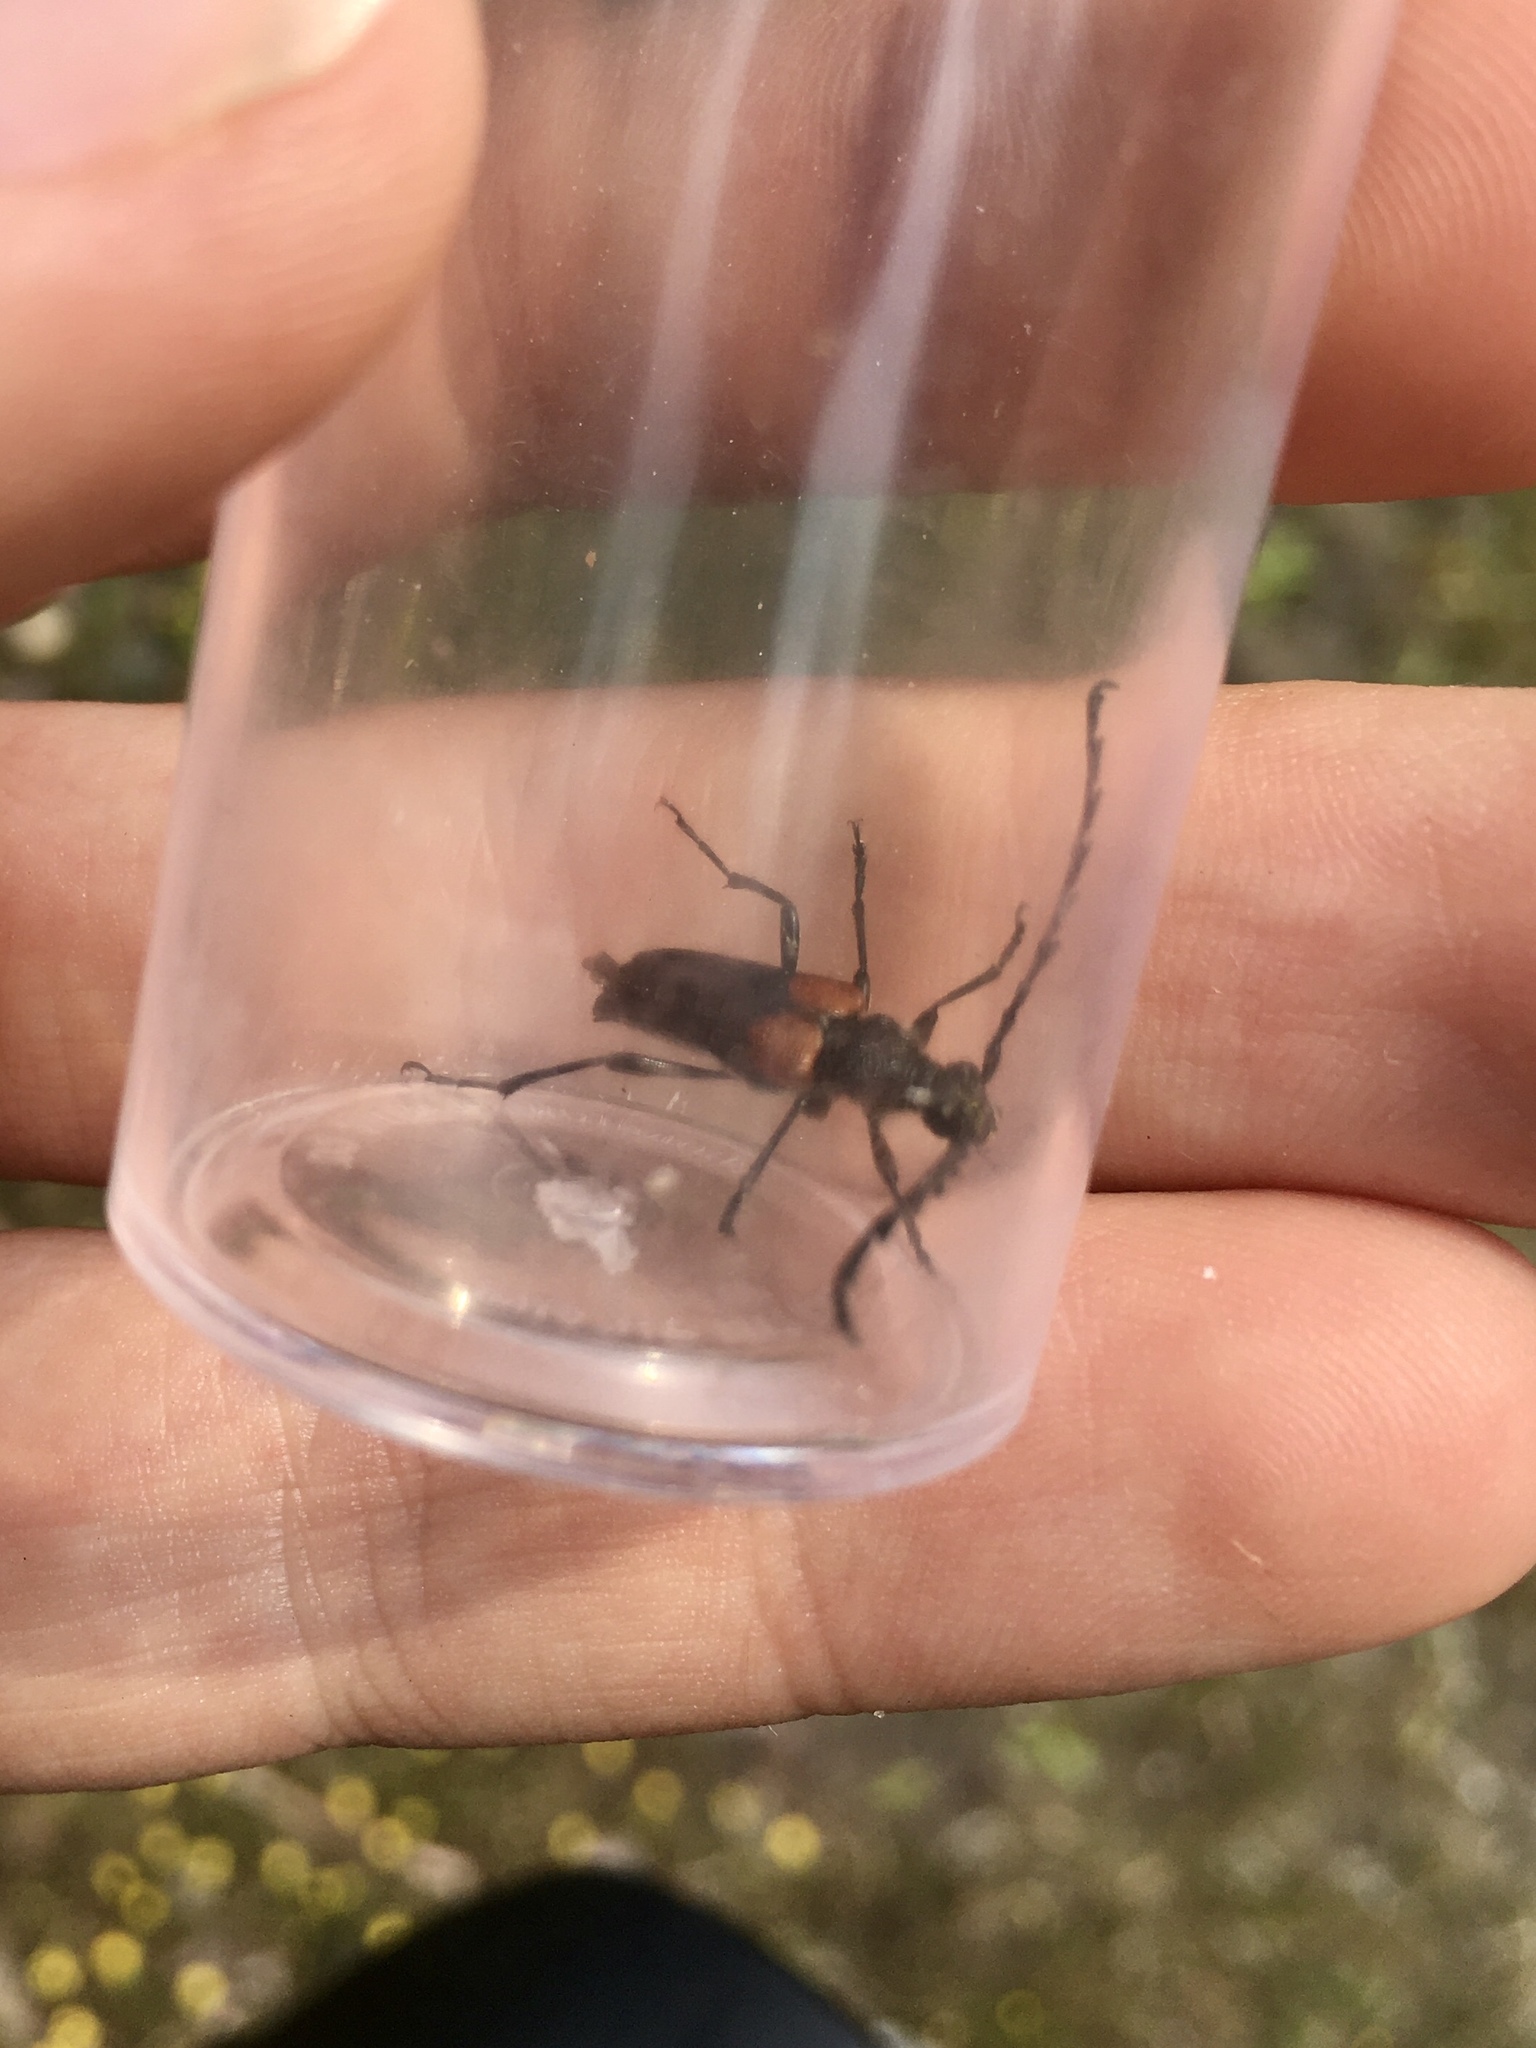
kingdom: Animalia
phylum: Arthropoda
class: Insecta
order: Coleoptera
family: Cerambycidae
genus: Stictoleptura
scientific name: Stictoleptura canadensis
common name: Red-shouldered pine borer
